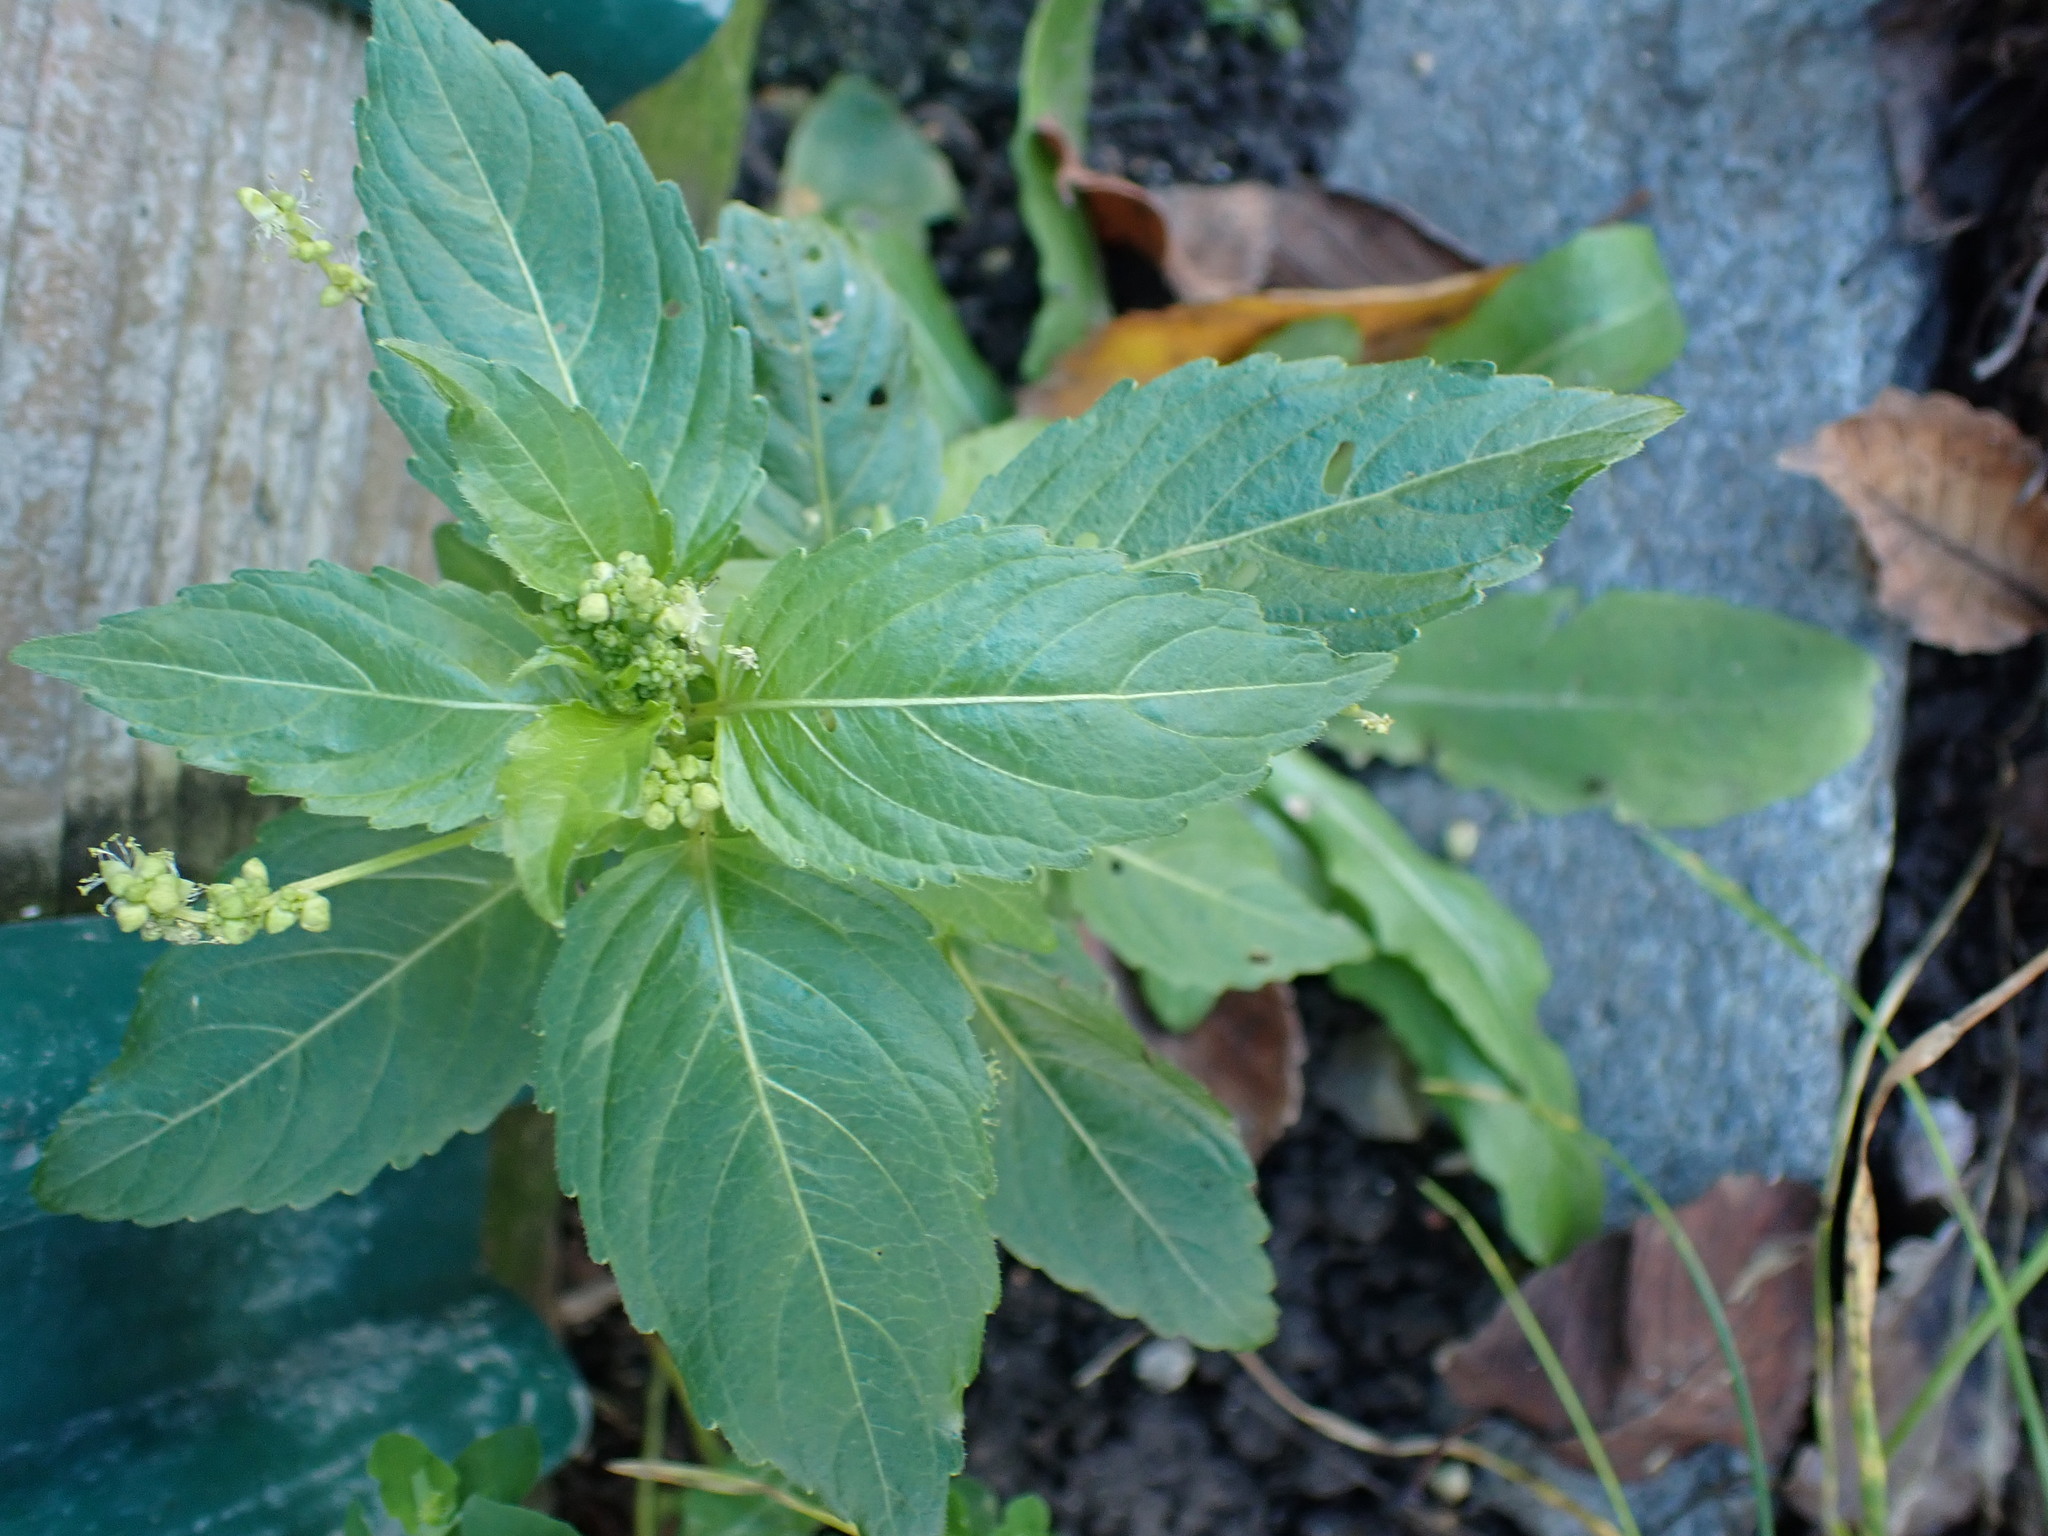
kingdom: Plantae
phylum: Tracheophyta
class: Magnoliopsida
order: Malpighiales
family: Euphorbiaceae
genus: Mercurialis
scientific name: Mercurialis annua
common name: Annual mercury
